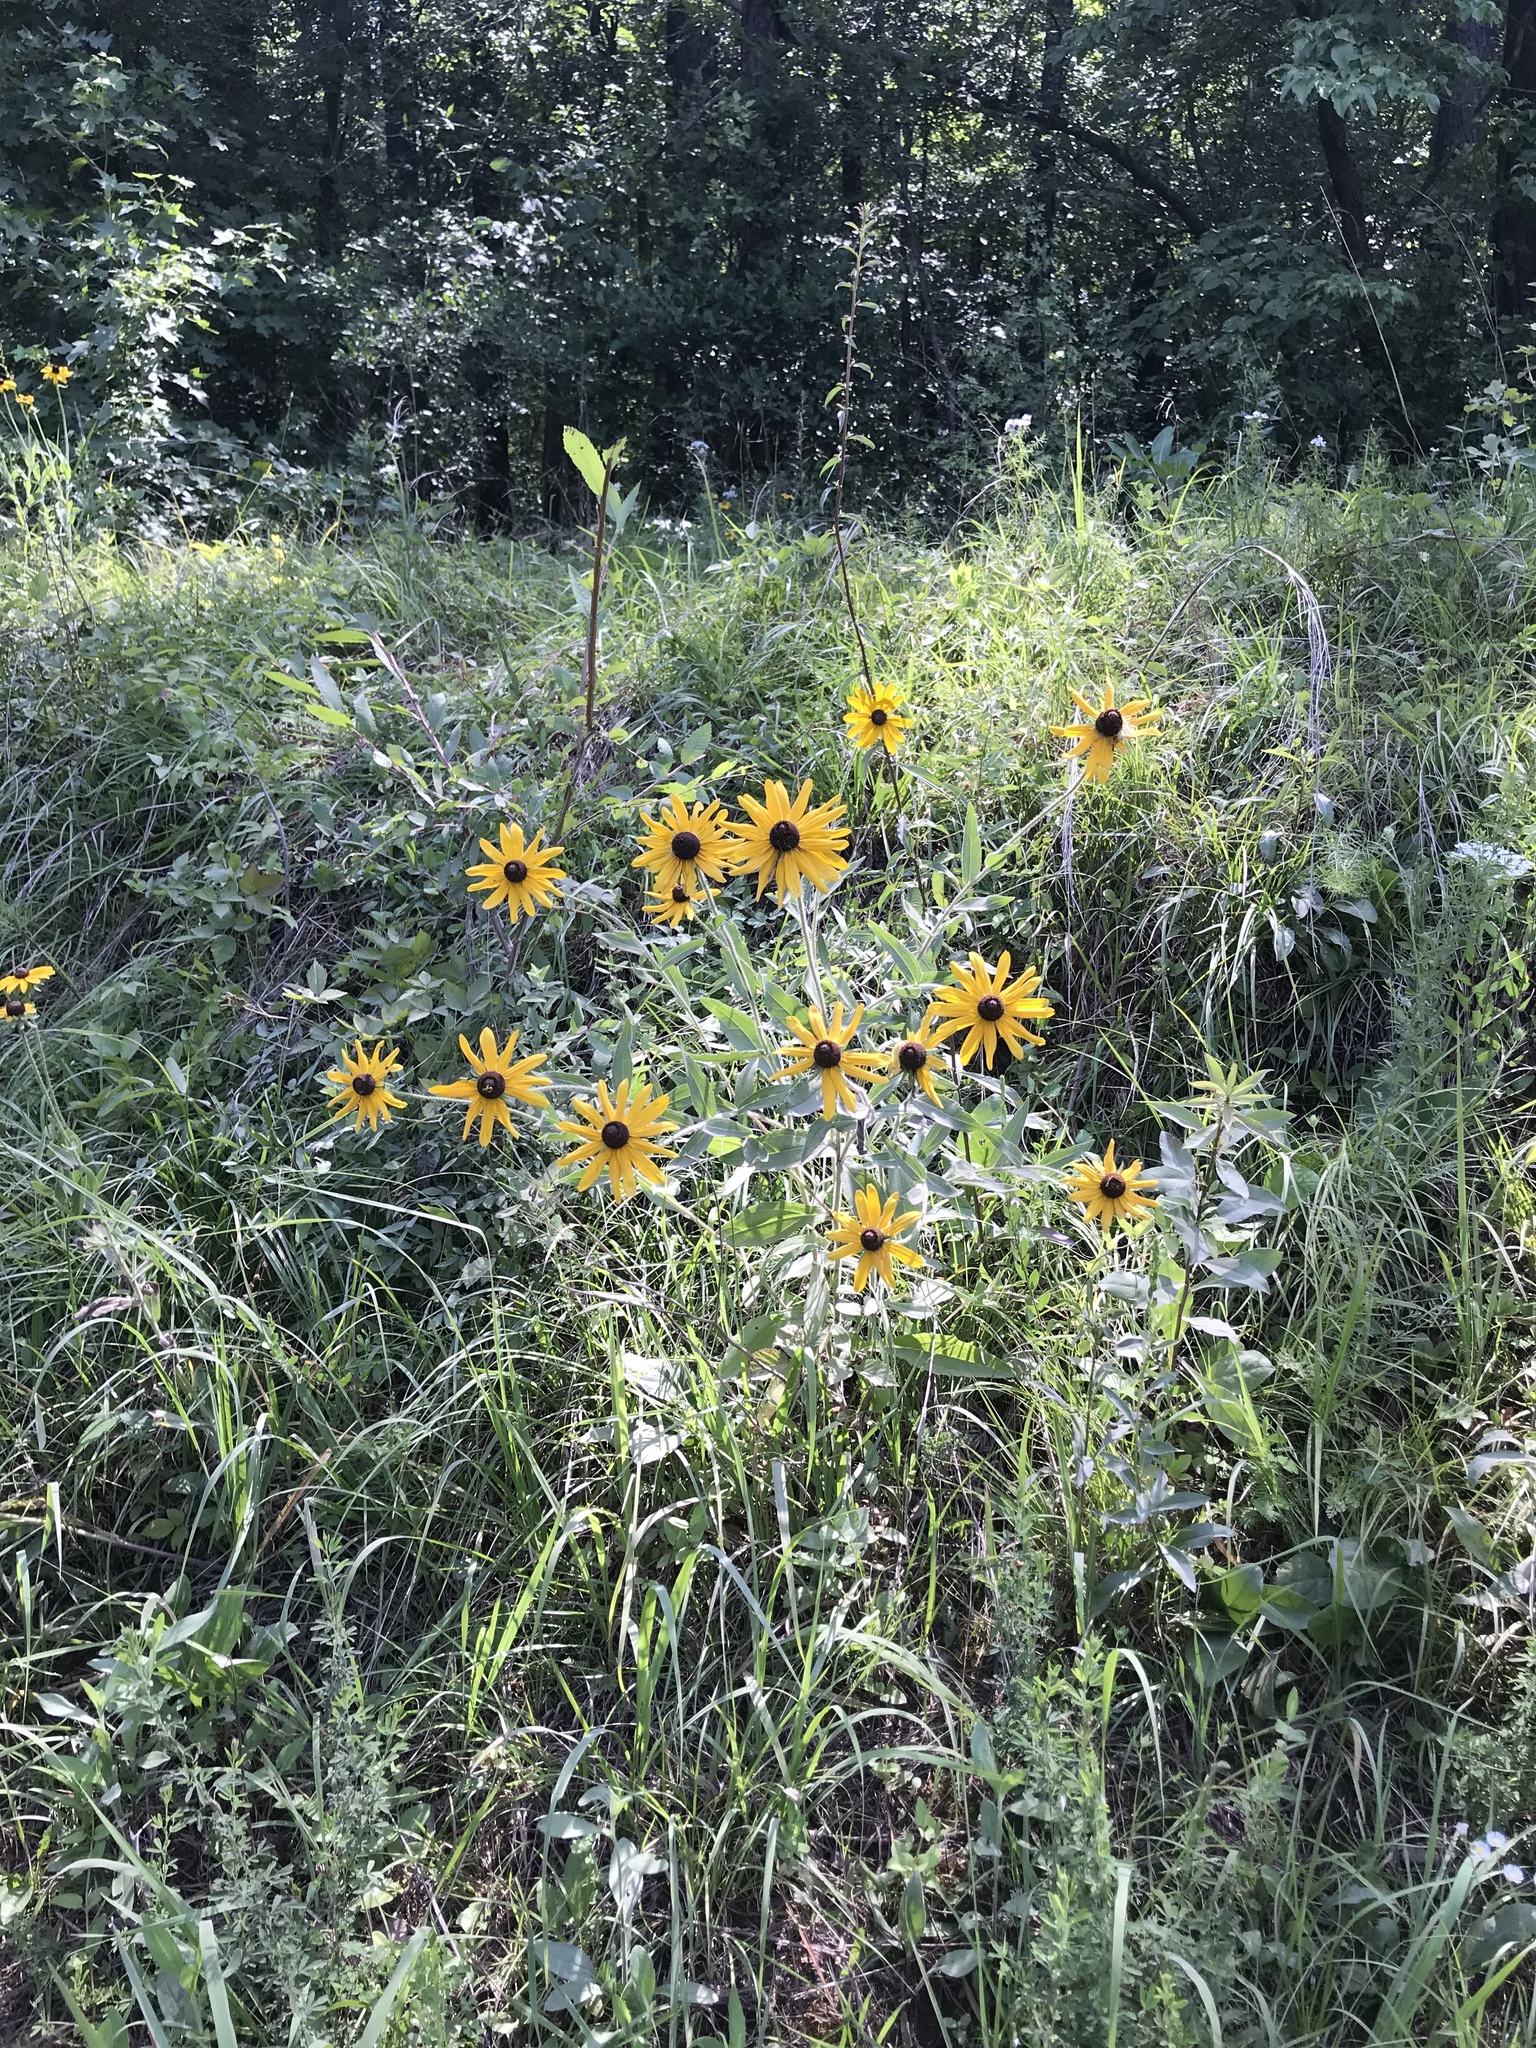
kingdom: Plantae
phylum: Tracheophyta
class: Magnoliopsida
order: Asterales
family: Asteraceae
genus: Rudbeckia
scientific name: Rudbeckia hirta
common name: Black-eyed-susan
